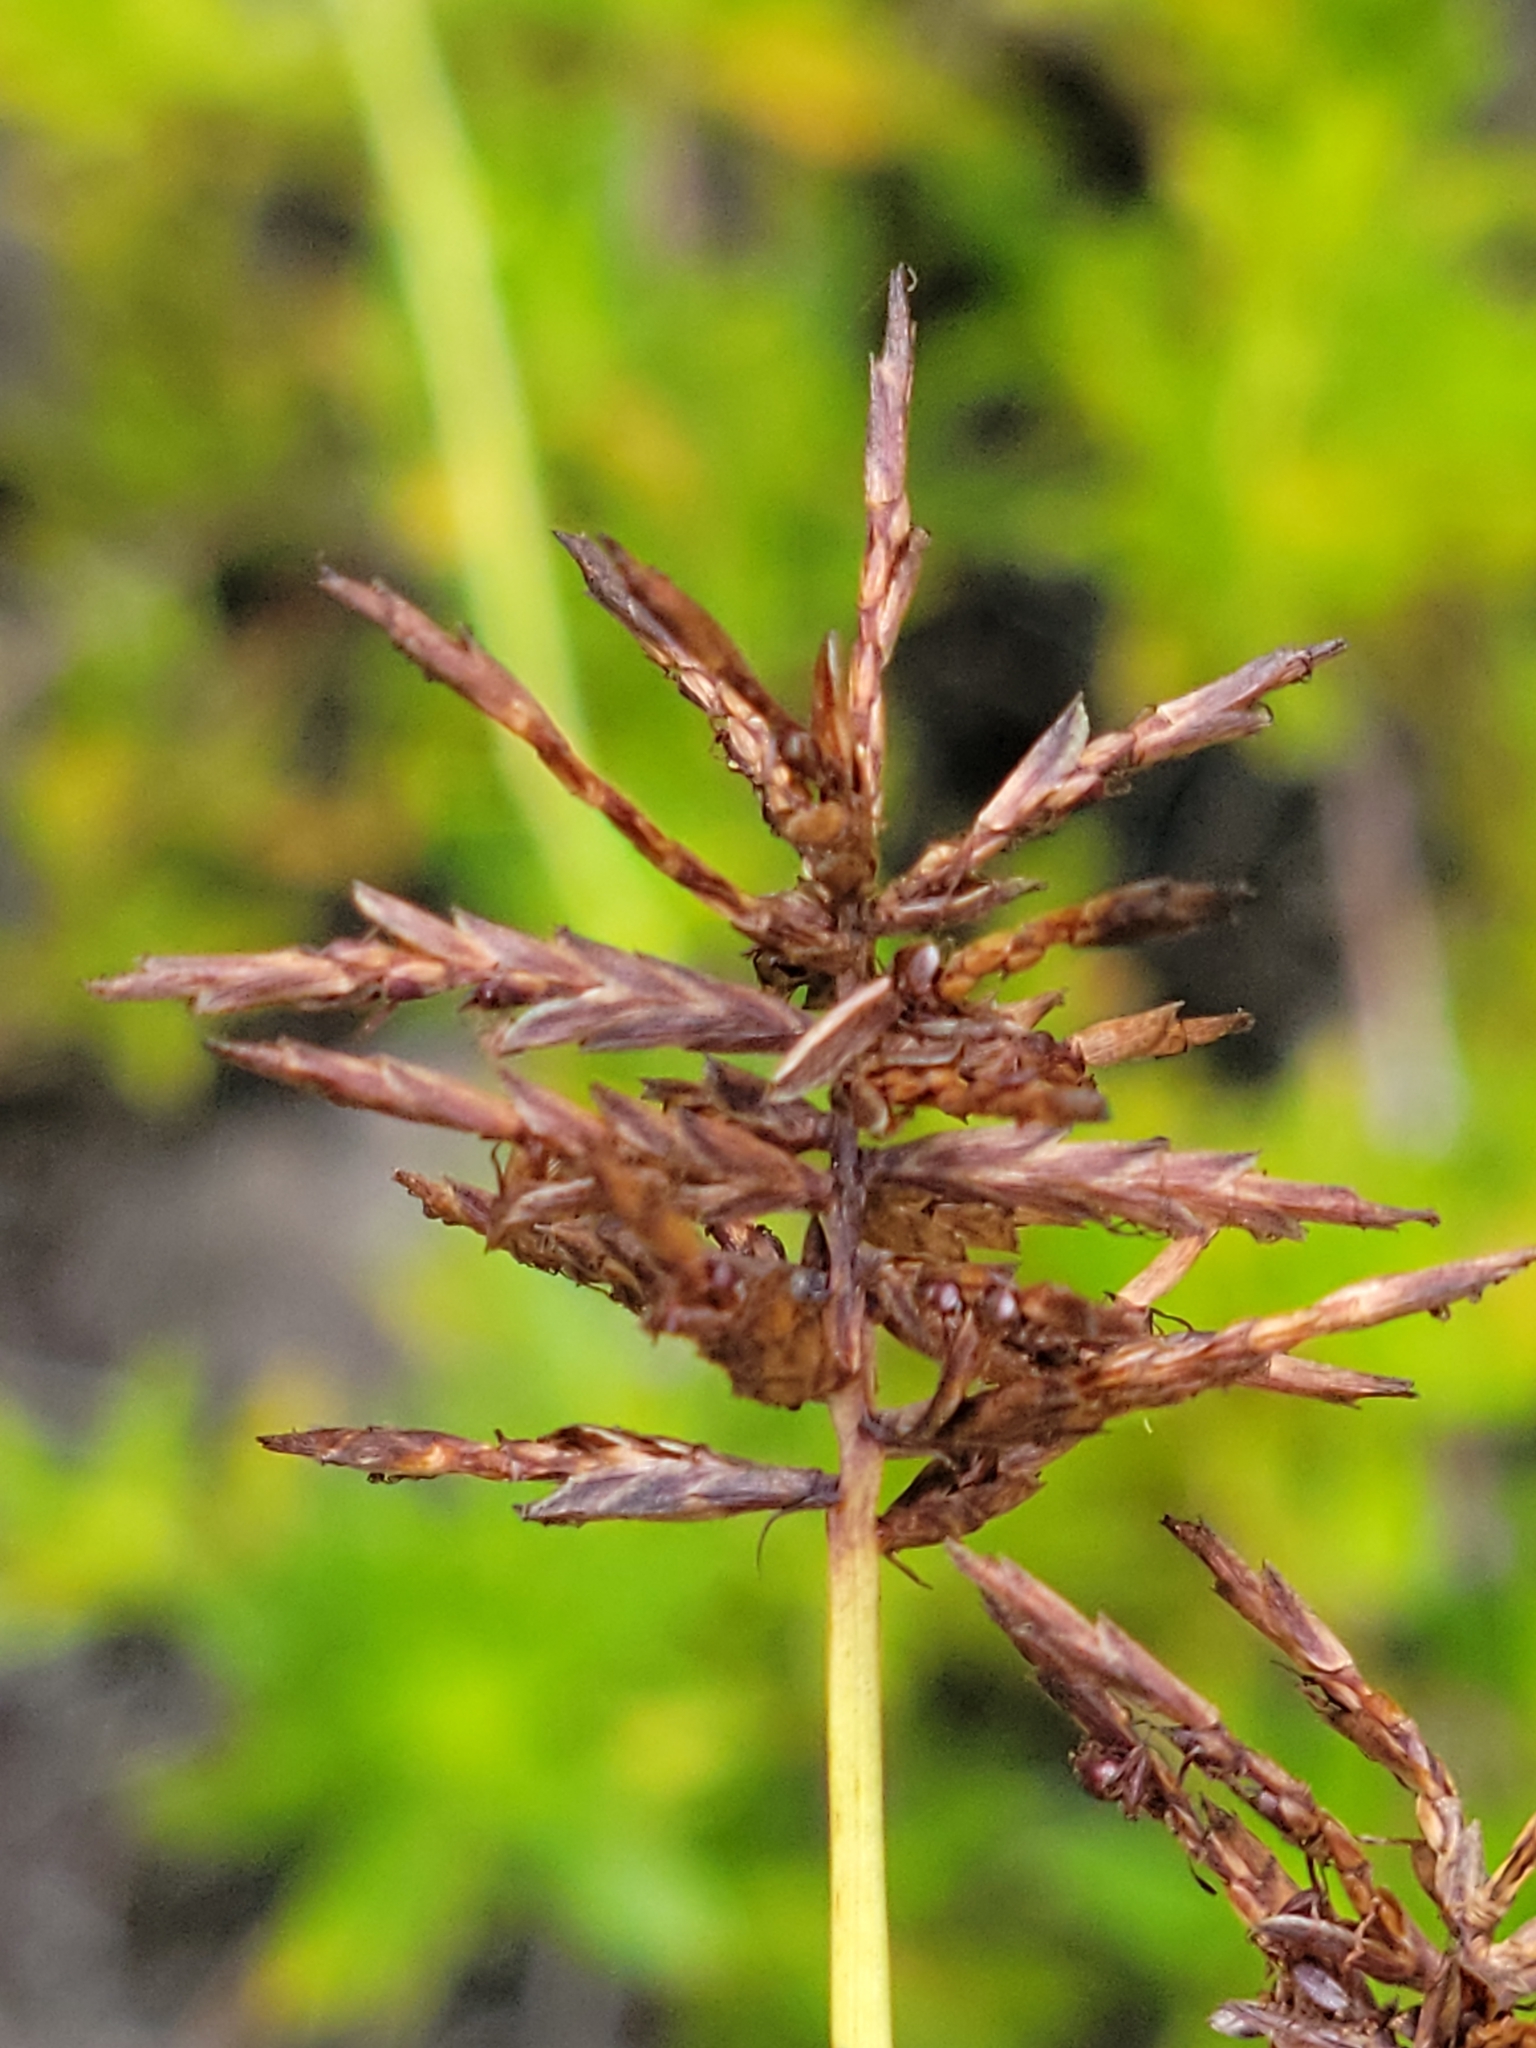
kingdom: Plantae
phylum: Tracheophyta
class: Liliopsida
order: Poales
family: Cyperaceae
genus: Cyperus
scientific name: Cyperus planifolius
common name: Bullgrass
